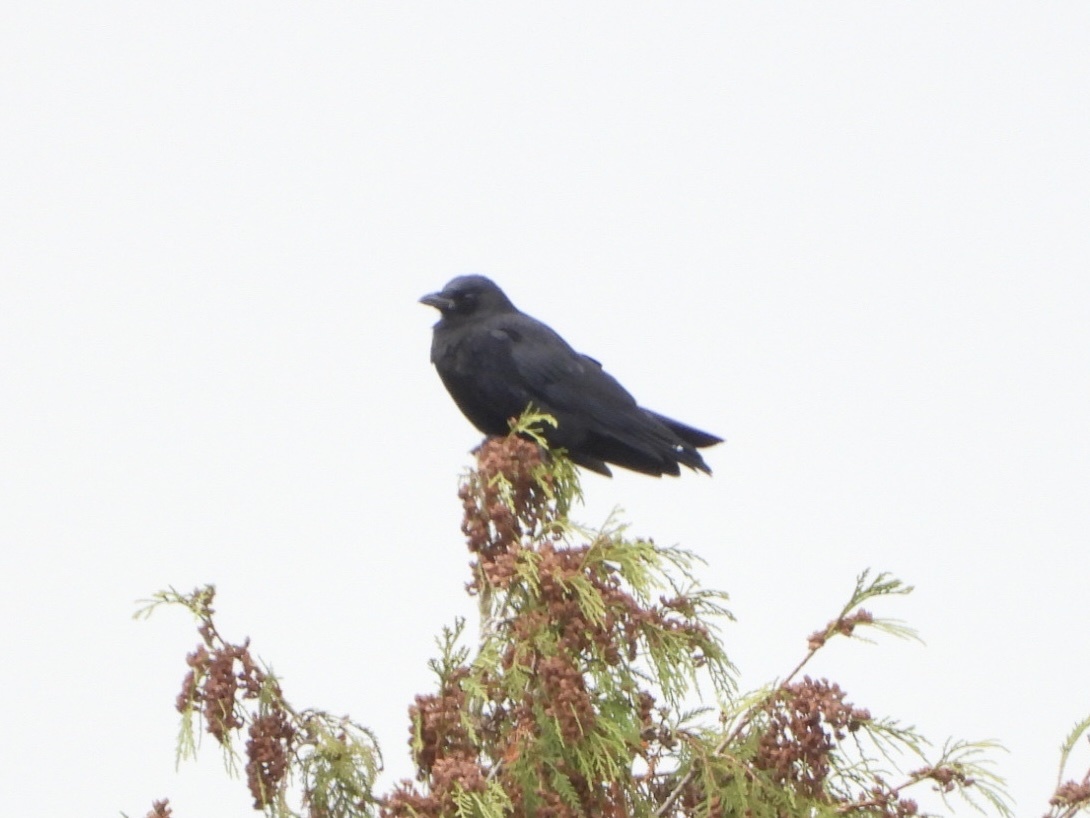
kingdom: Animalia
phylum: Chordata
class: Aves
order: Passeriformes
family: Corvidae
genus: Corvus
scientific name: Corvus brachyrhynchos
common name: American crow
